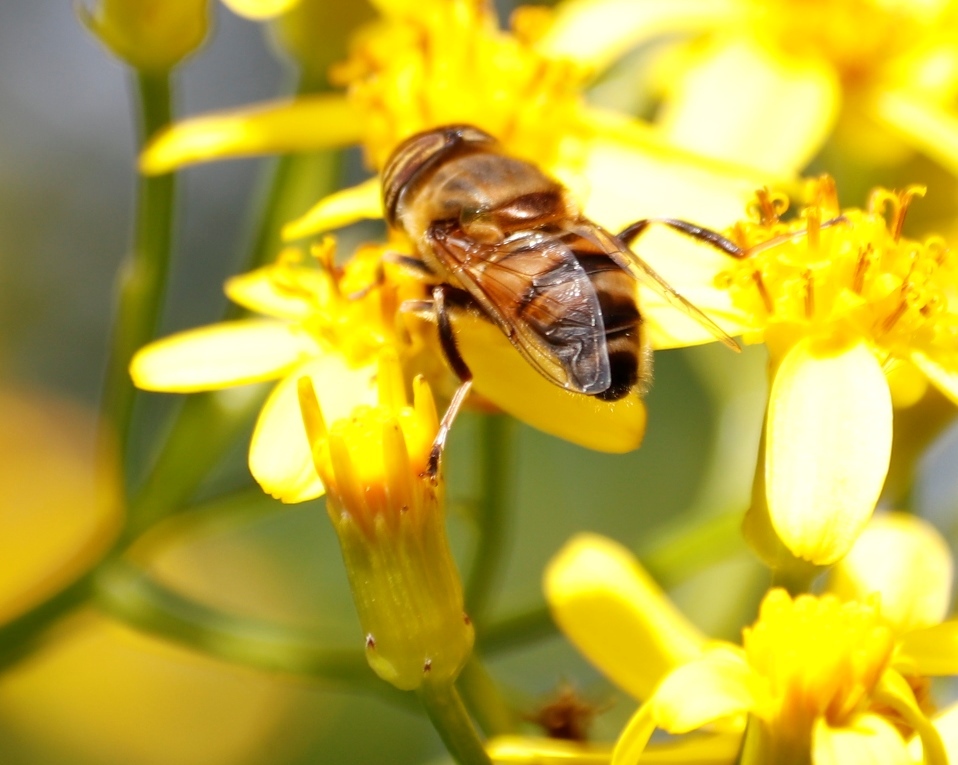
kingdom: Animalia
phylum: Arthropoda
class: Insecta
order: Diptera
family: Syrphidae
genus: Eristalinus
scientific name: Eristalinus taeniops
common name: Syrphid fly
